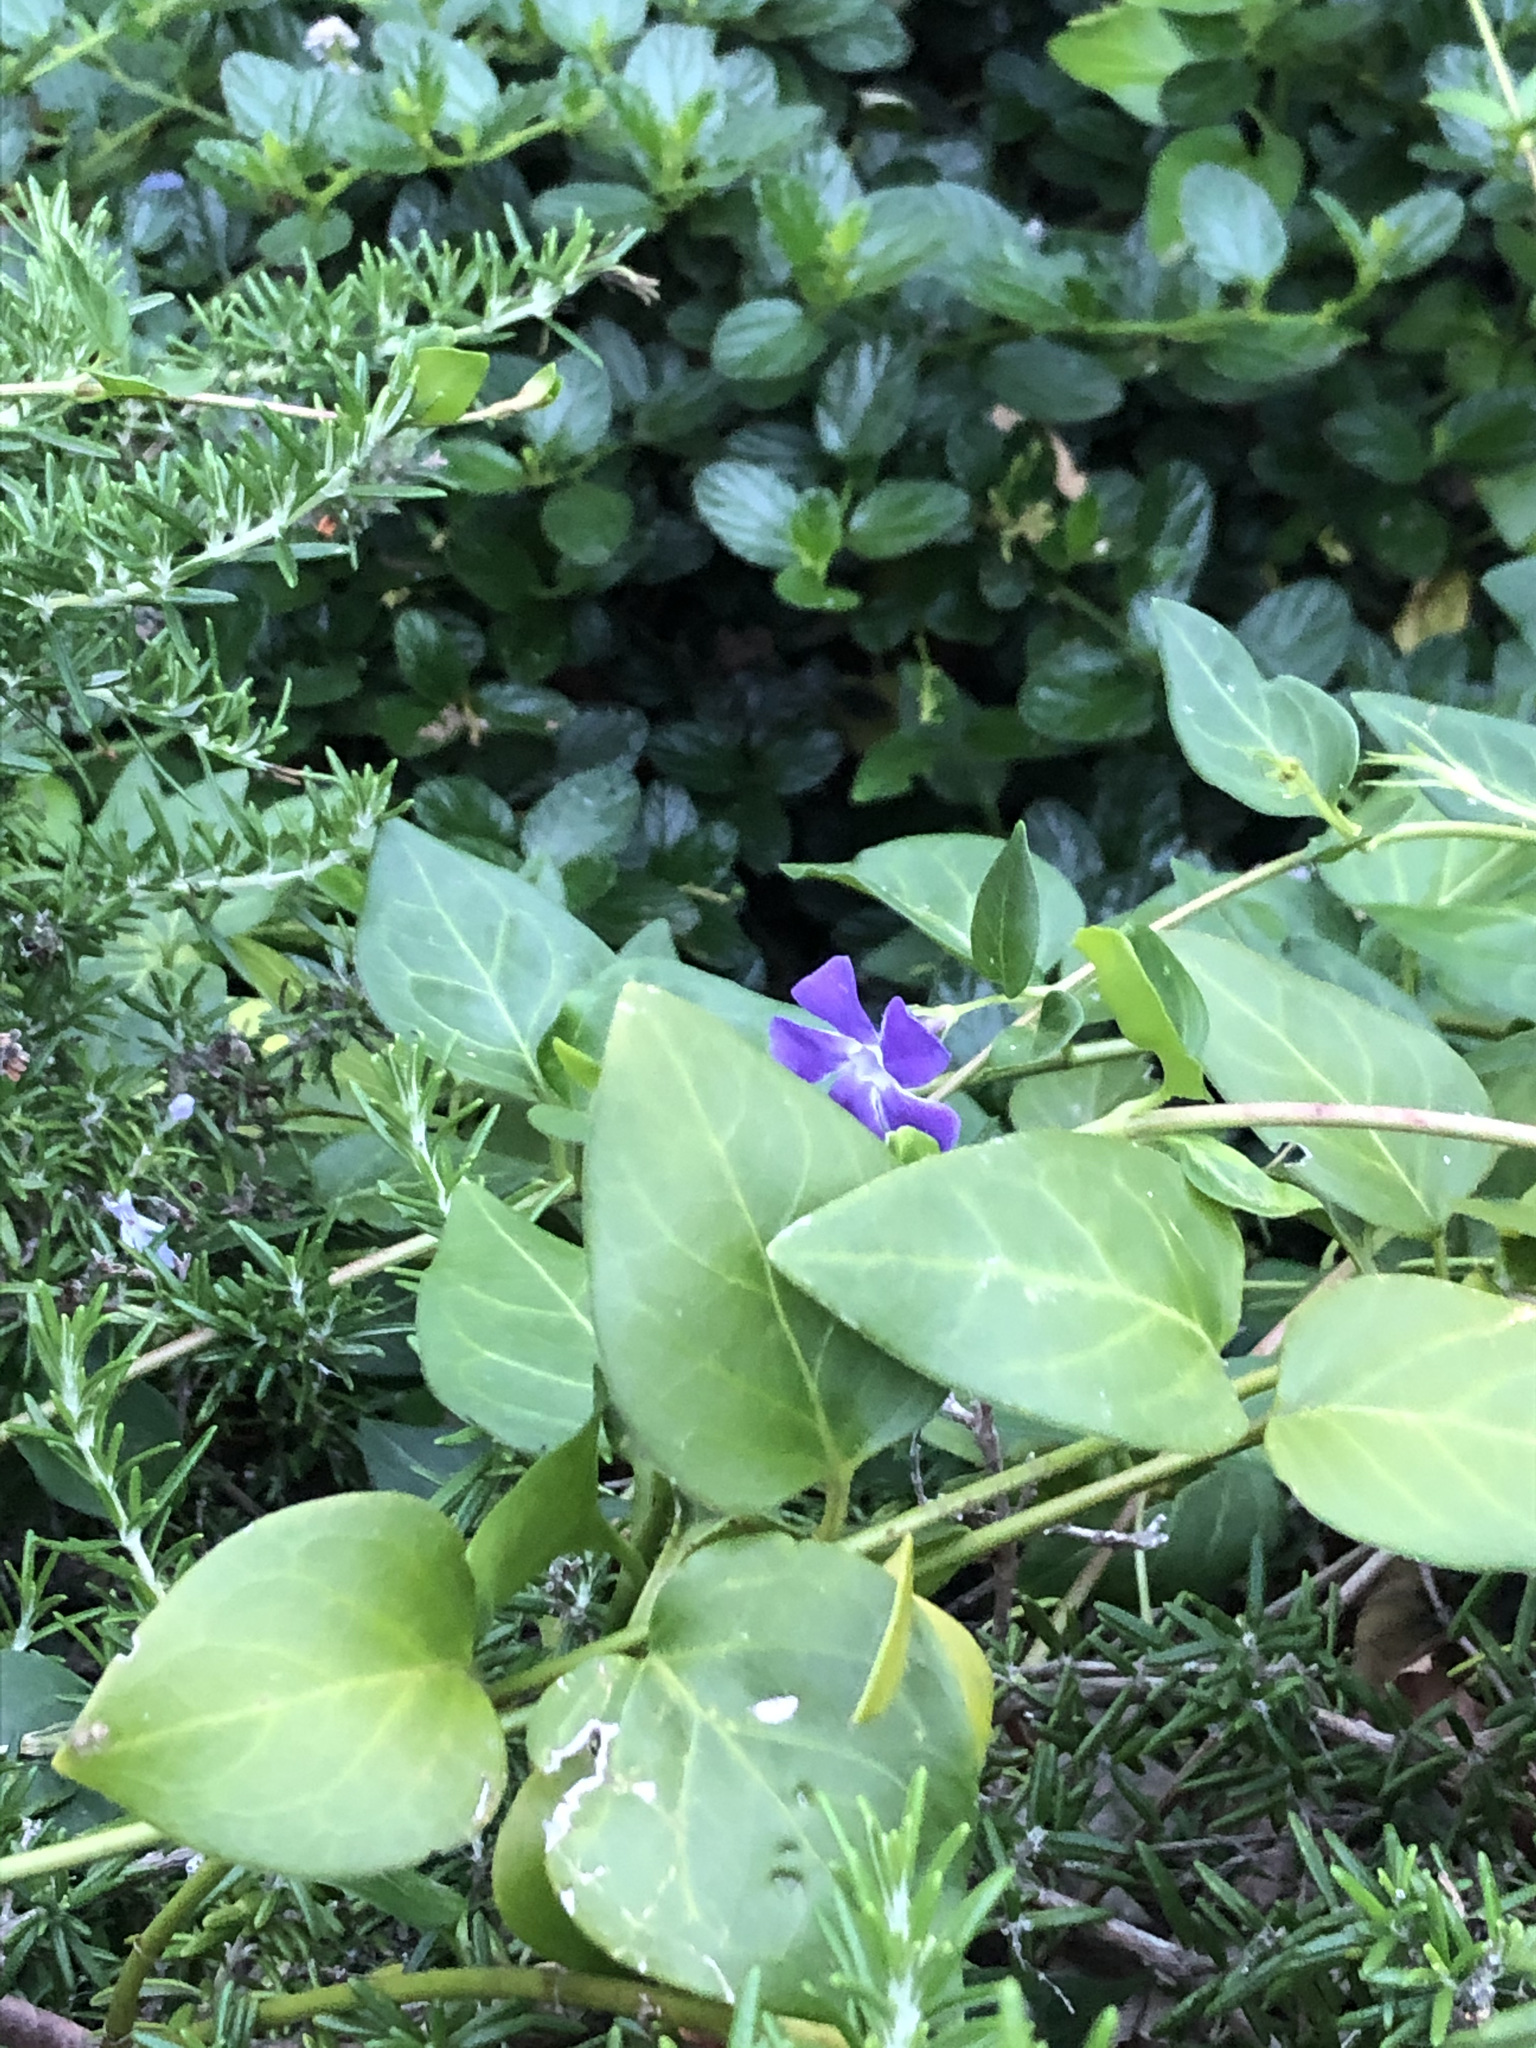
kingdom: Plantae
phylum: Tracheophyta
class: Magnoliopsida
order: Gentianales
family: Apocynaceae
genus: Vinca
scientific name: Vinca major
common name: Greater periwinkle
